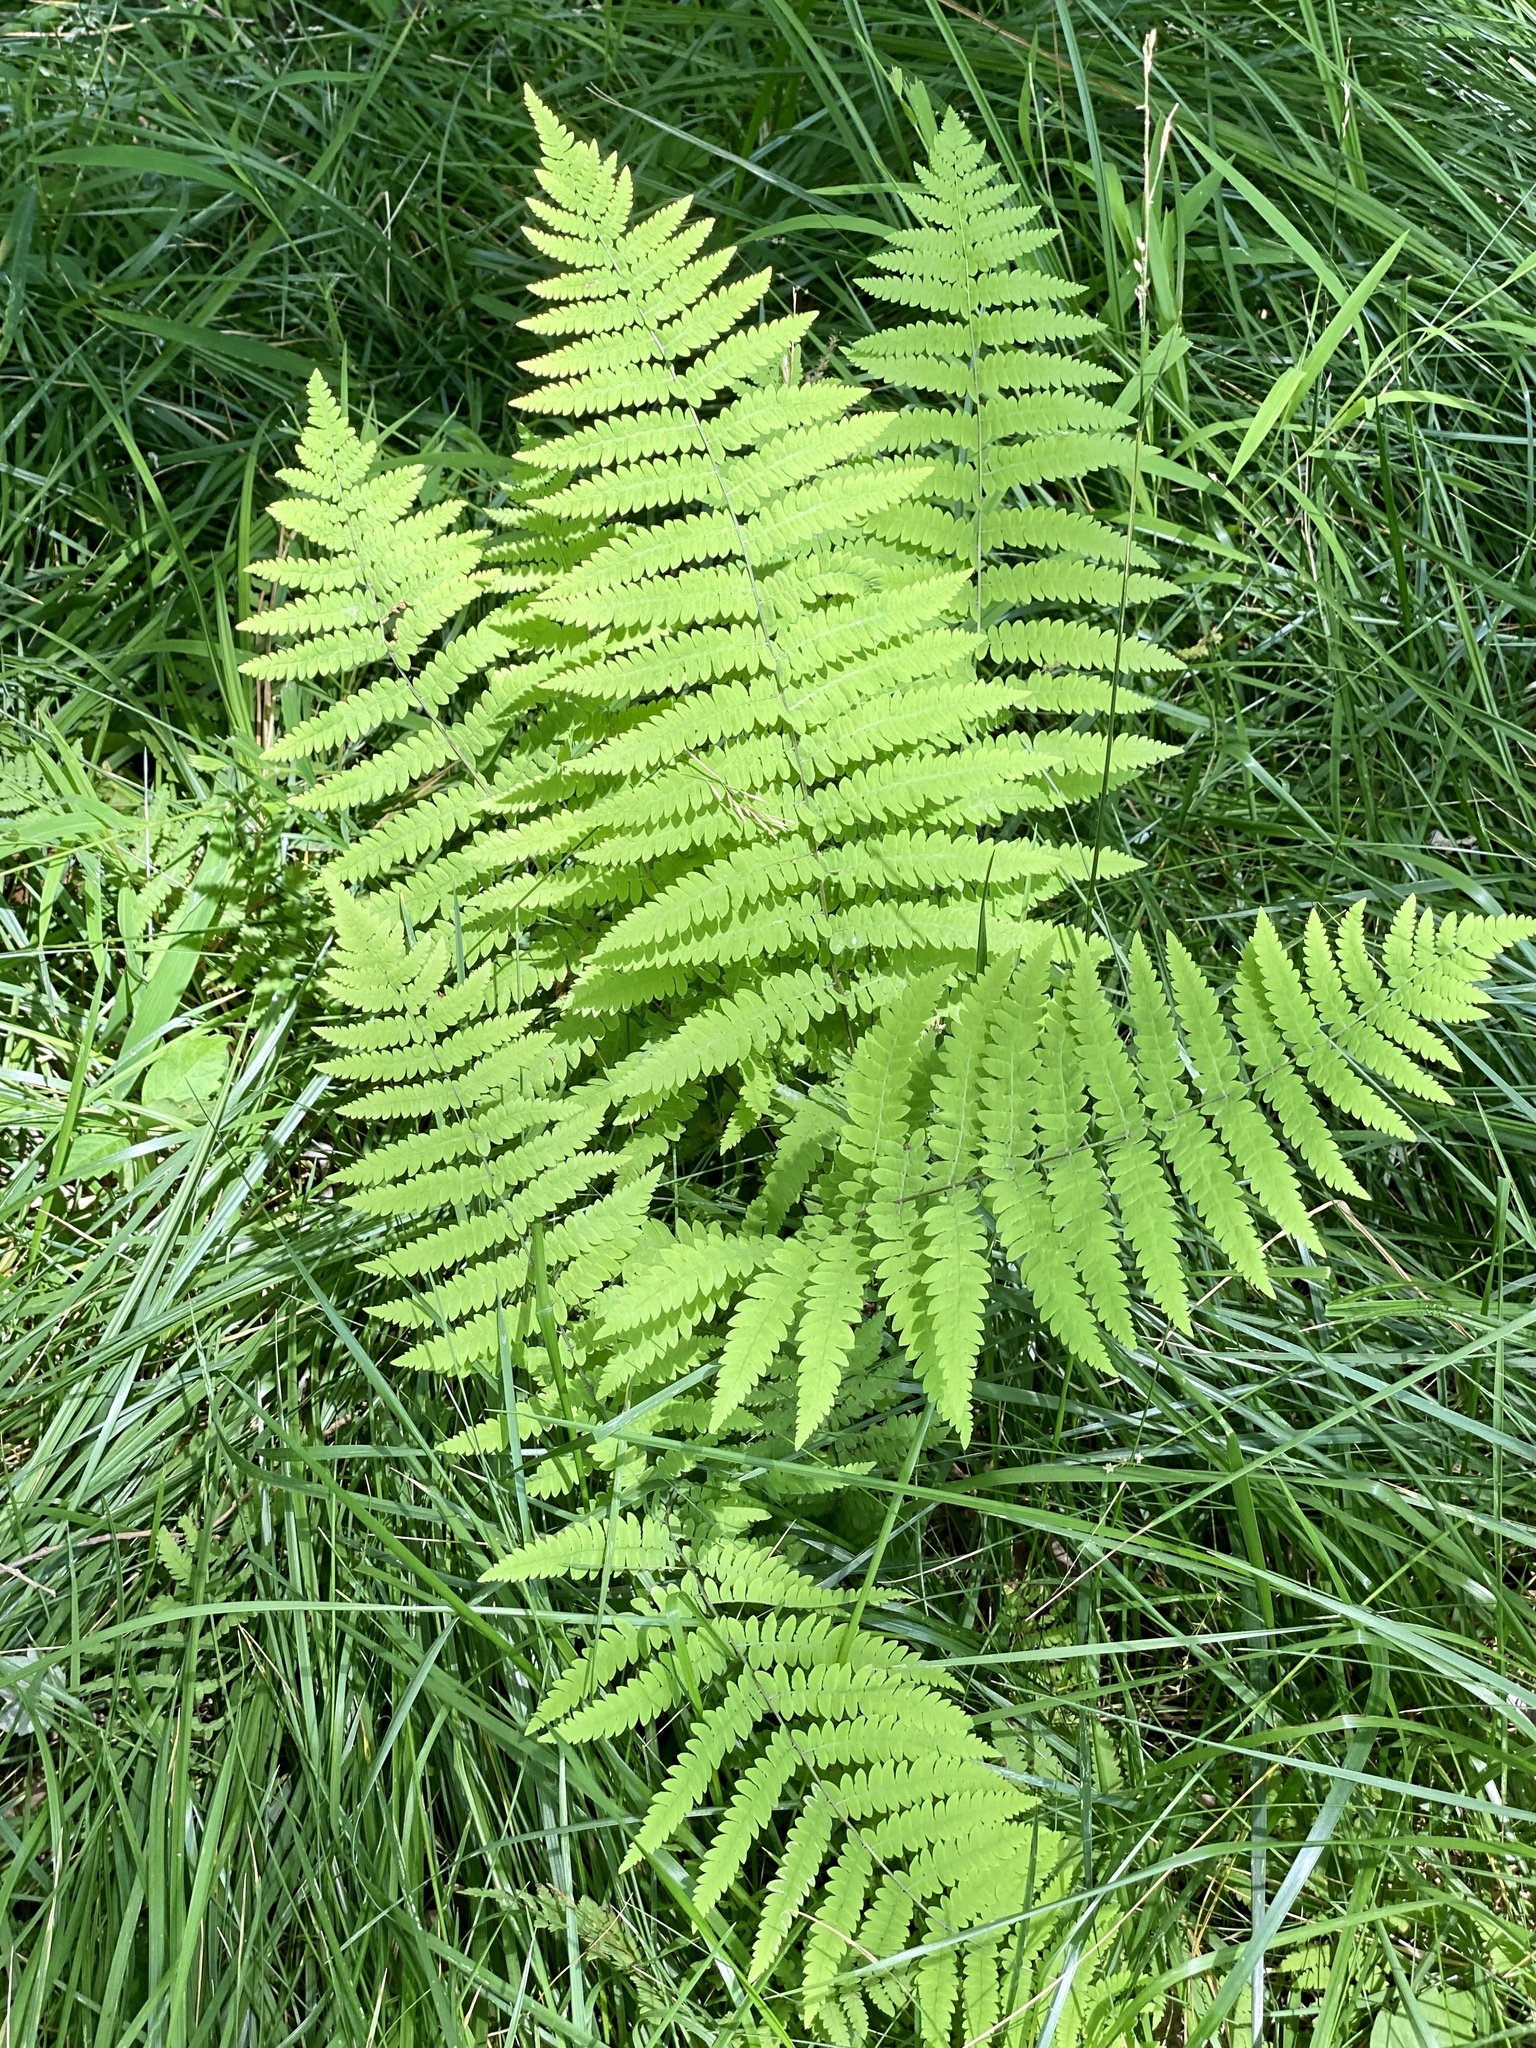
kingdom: Plantae
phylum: Tracheophyta
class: Polypodiopsida
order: Polypodiales
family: Thelypteridaceae
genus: Thelypteris
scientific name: Thelypteris palustris
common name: Marsh fern
